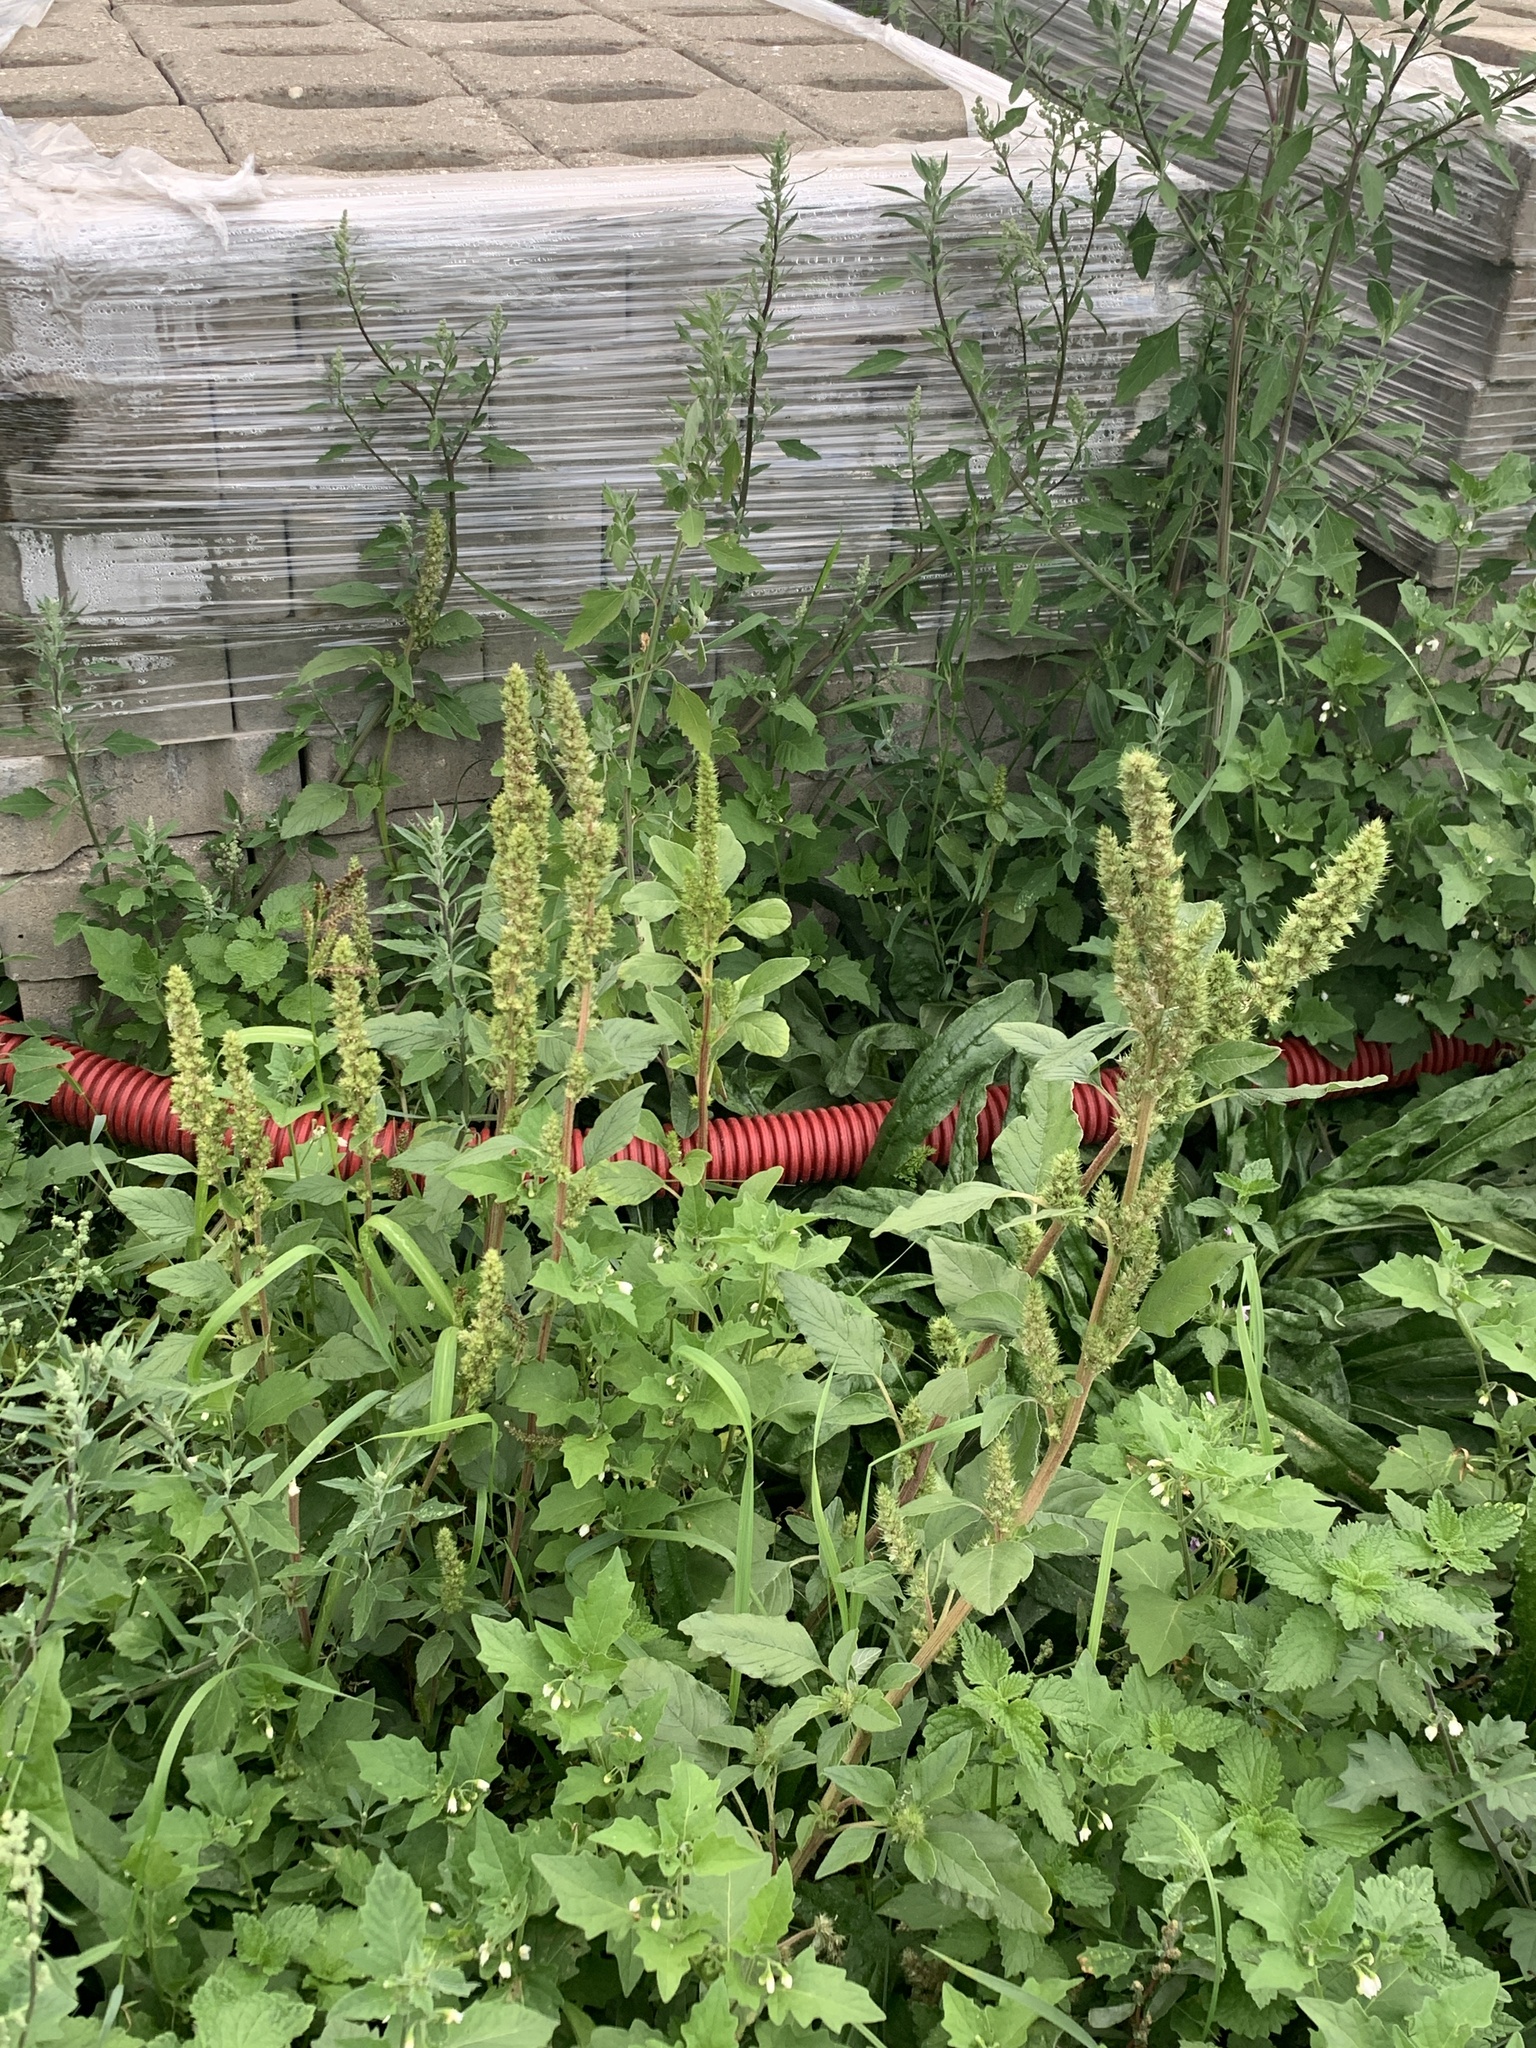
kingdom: Plantae
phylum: Tracheophyta
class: Magnoliopsida
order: Caryophyllales
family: Amaranthaceae
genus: Amaranthus
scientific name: Amaranthus retroflexus
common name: Redroot amaranth
